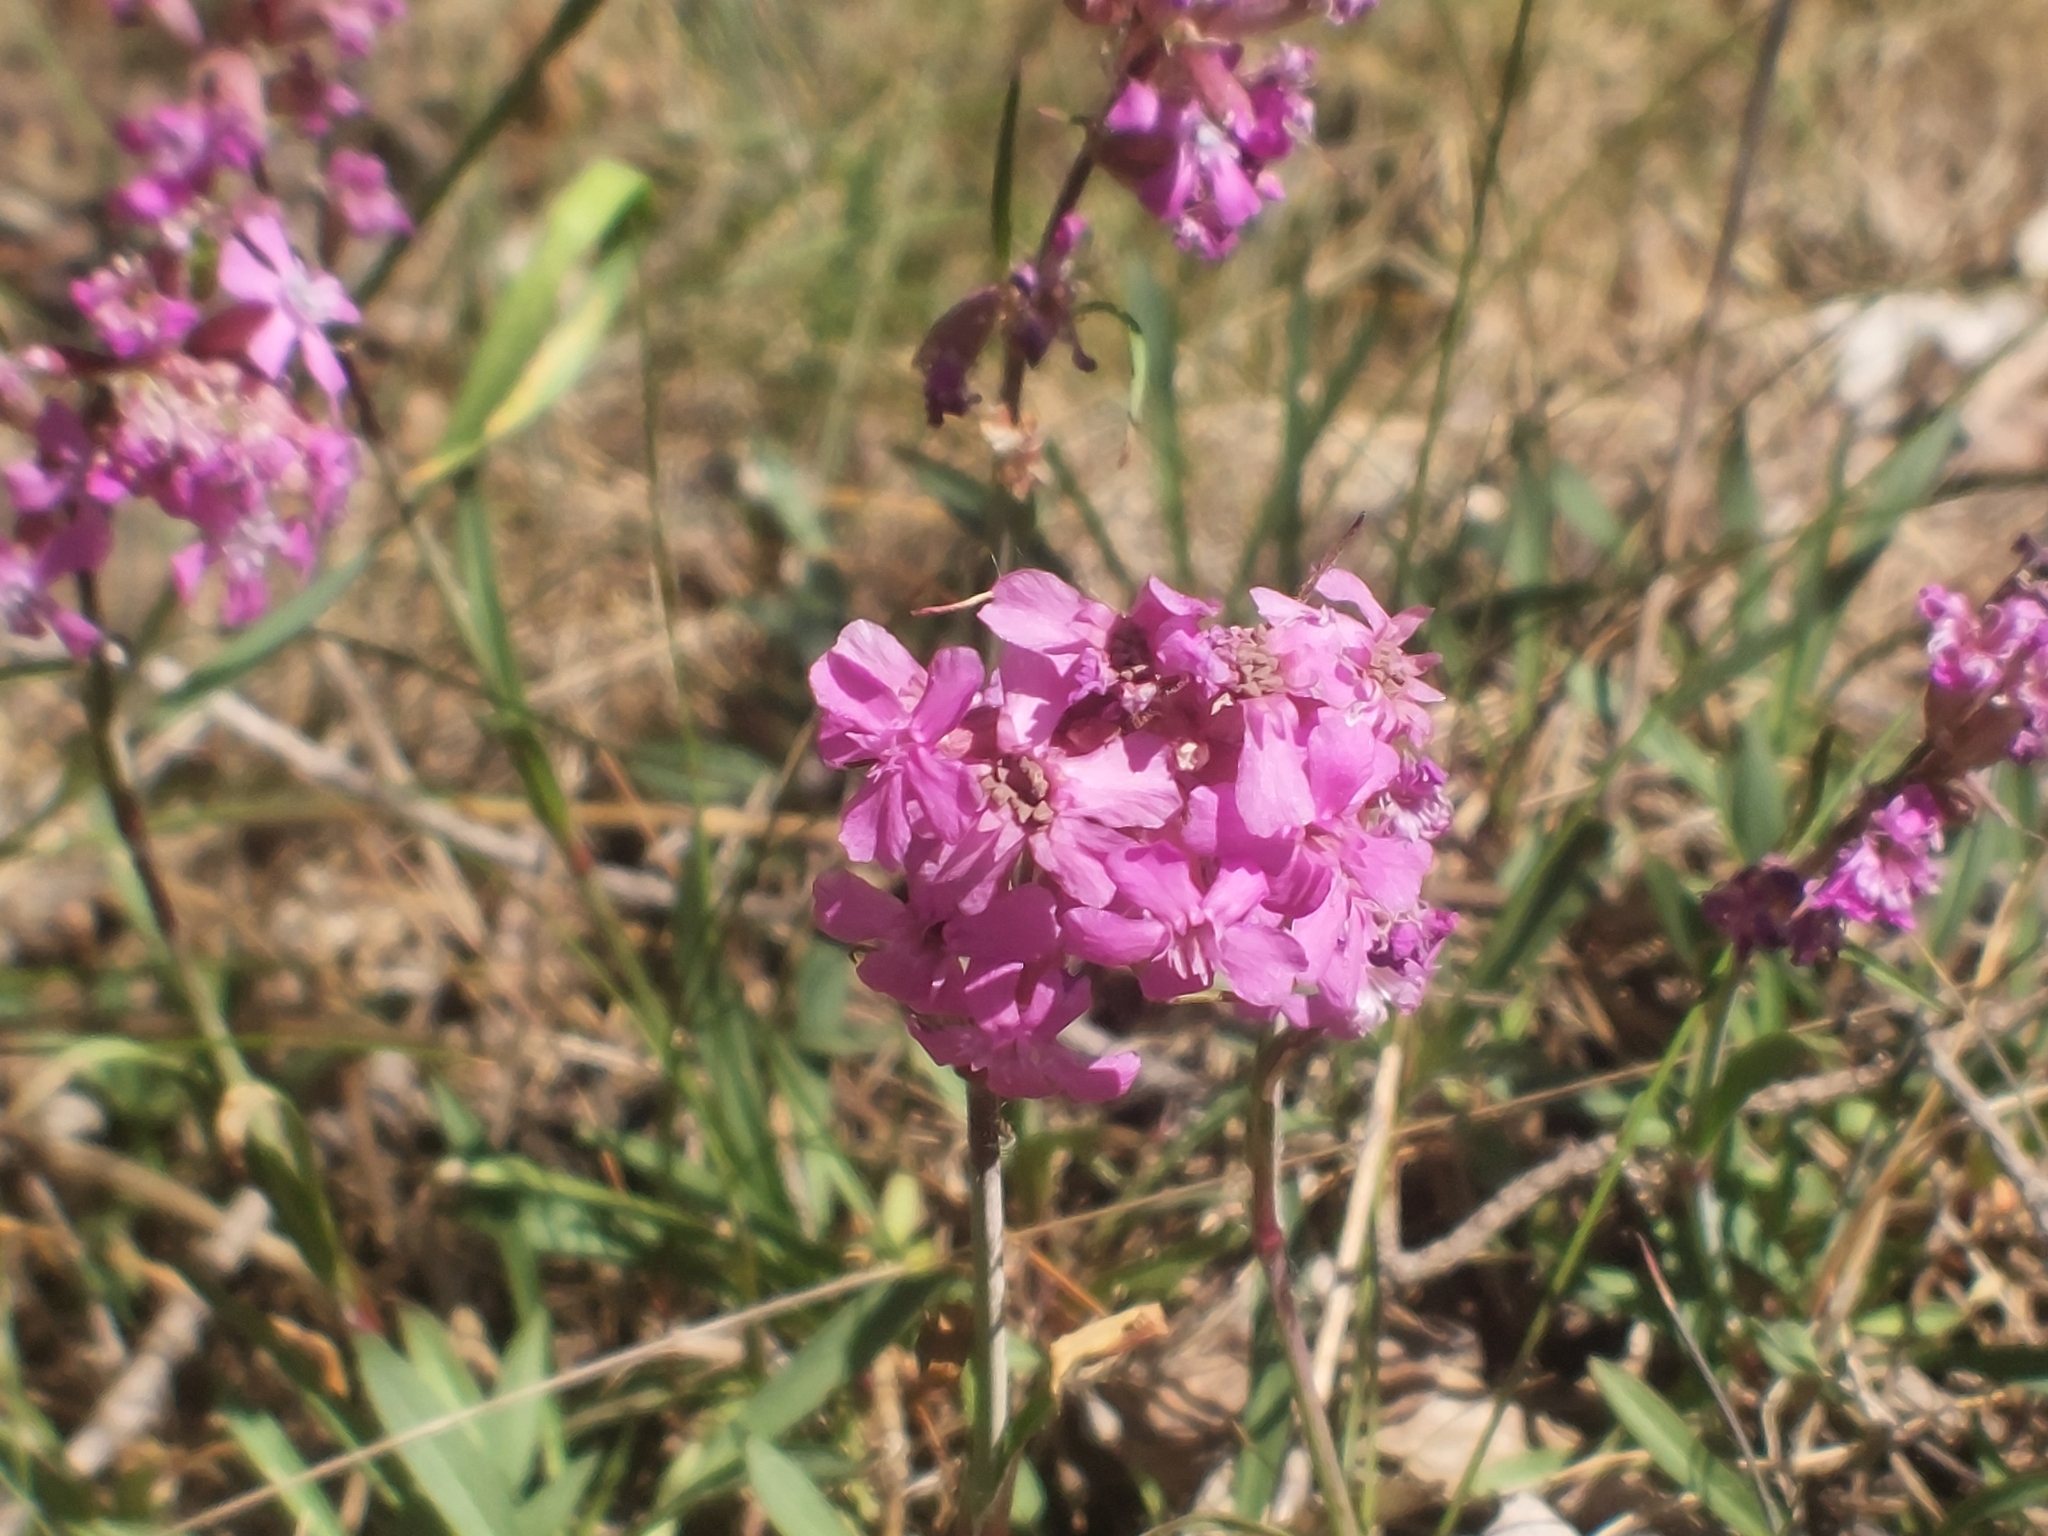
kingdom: Plantae
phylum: Tracheophyta
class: Magnoliopsida
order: Caryophyllales
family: Caryophyllaceae
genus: Viscaria
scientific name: Viscaria vulgaris
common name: Clammy campion
